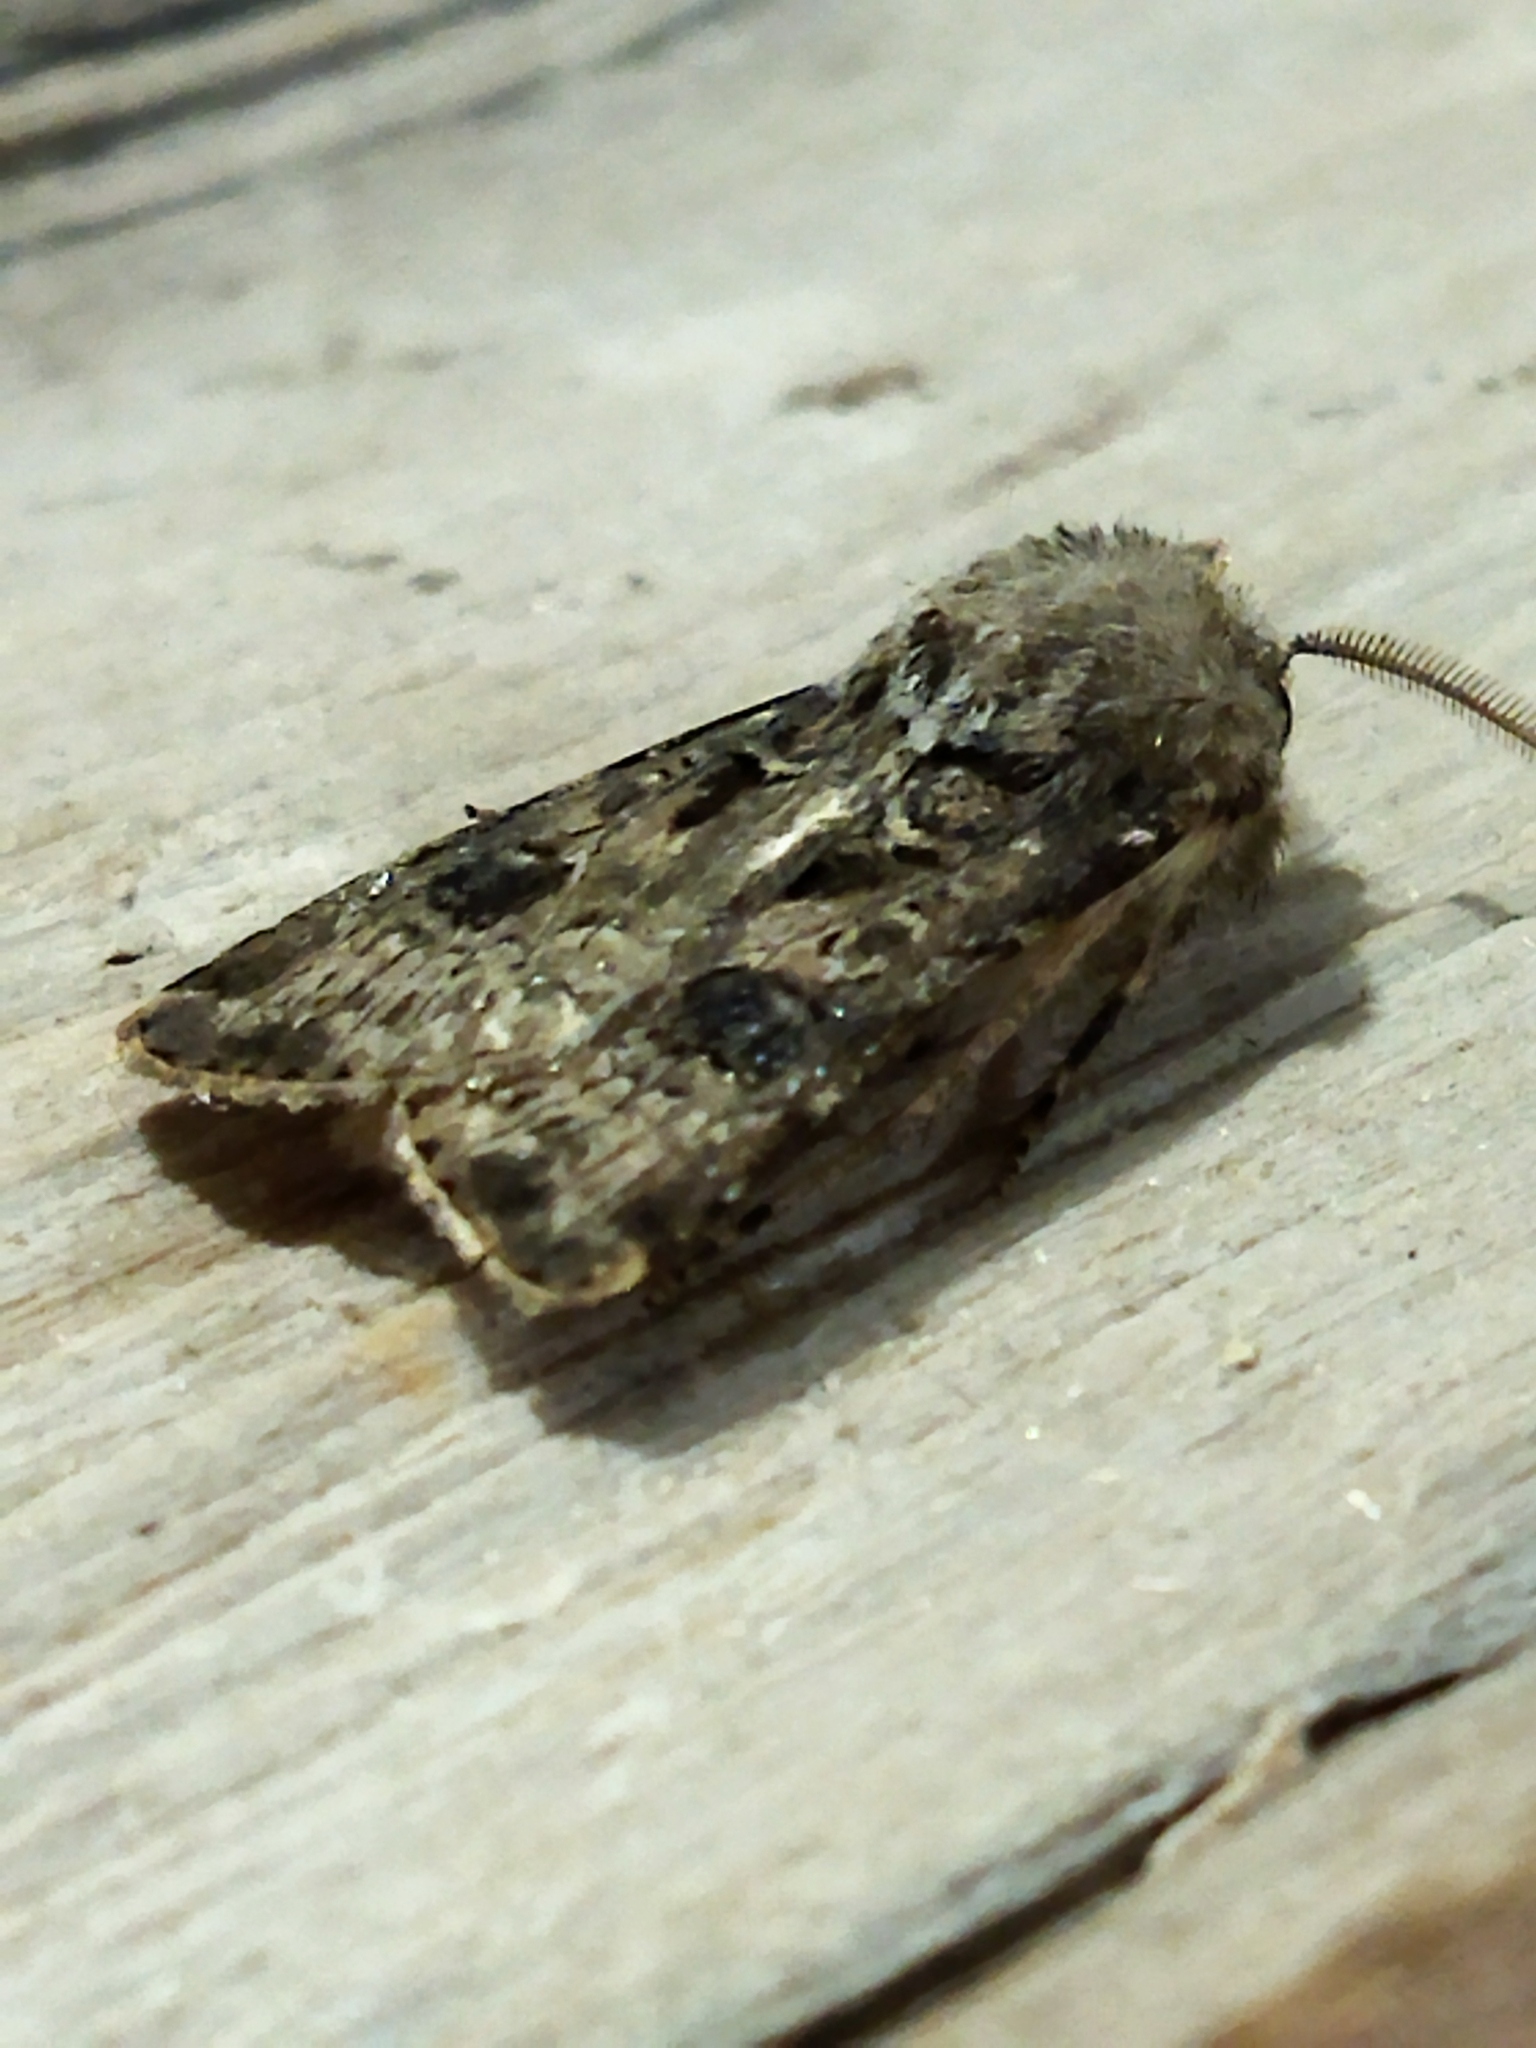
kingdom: Animalia
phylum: Arthropoda
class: Insecta
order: Lepidoptera
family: Noctuidae
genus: Agrotis
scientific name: Agrotis bigramma
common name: Great dart
